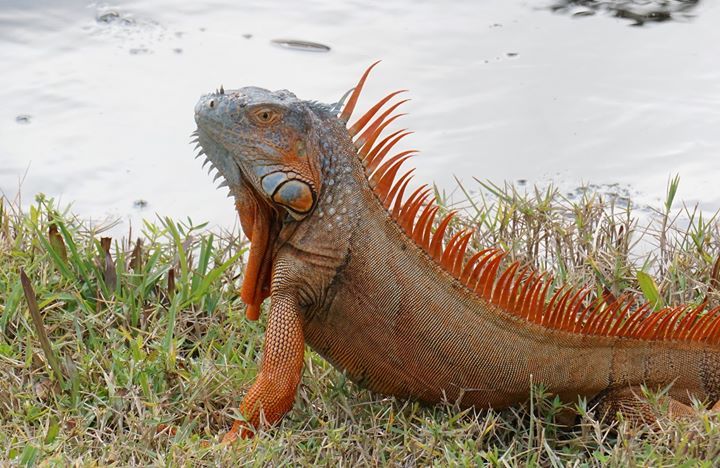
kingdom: Animalia
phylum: Chordata
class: Squamata
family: Iguanidae
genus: Iguana
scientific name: Iguana iguana
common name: Green iguana
